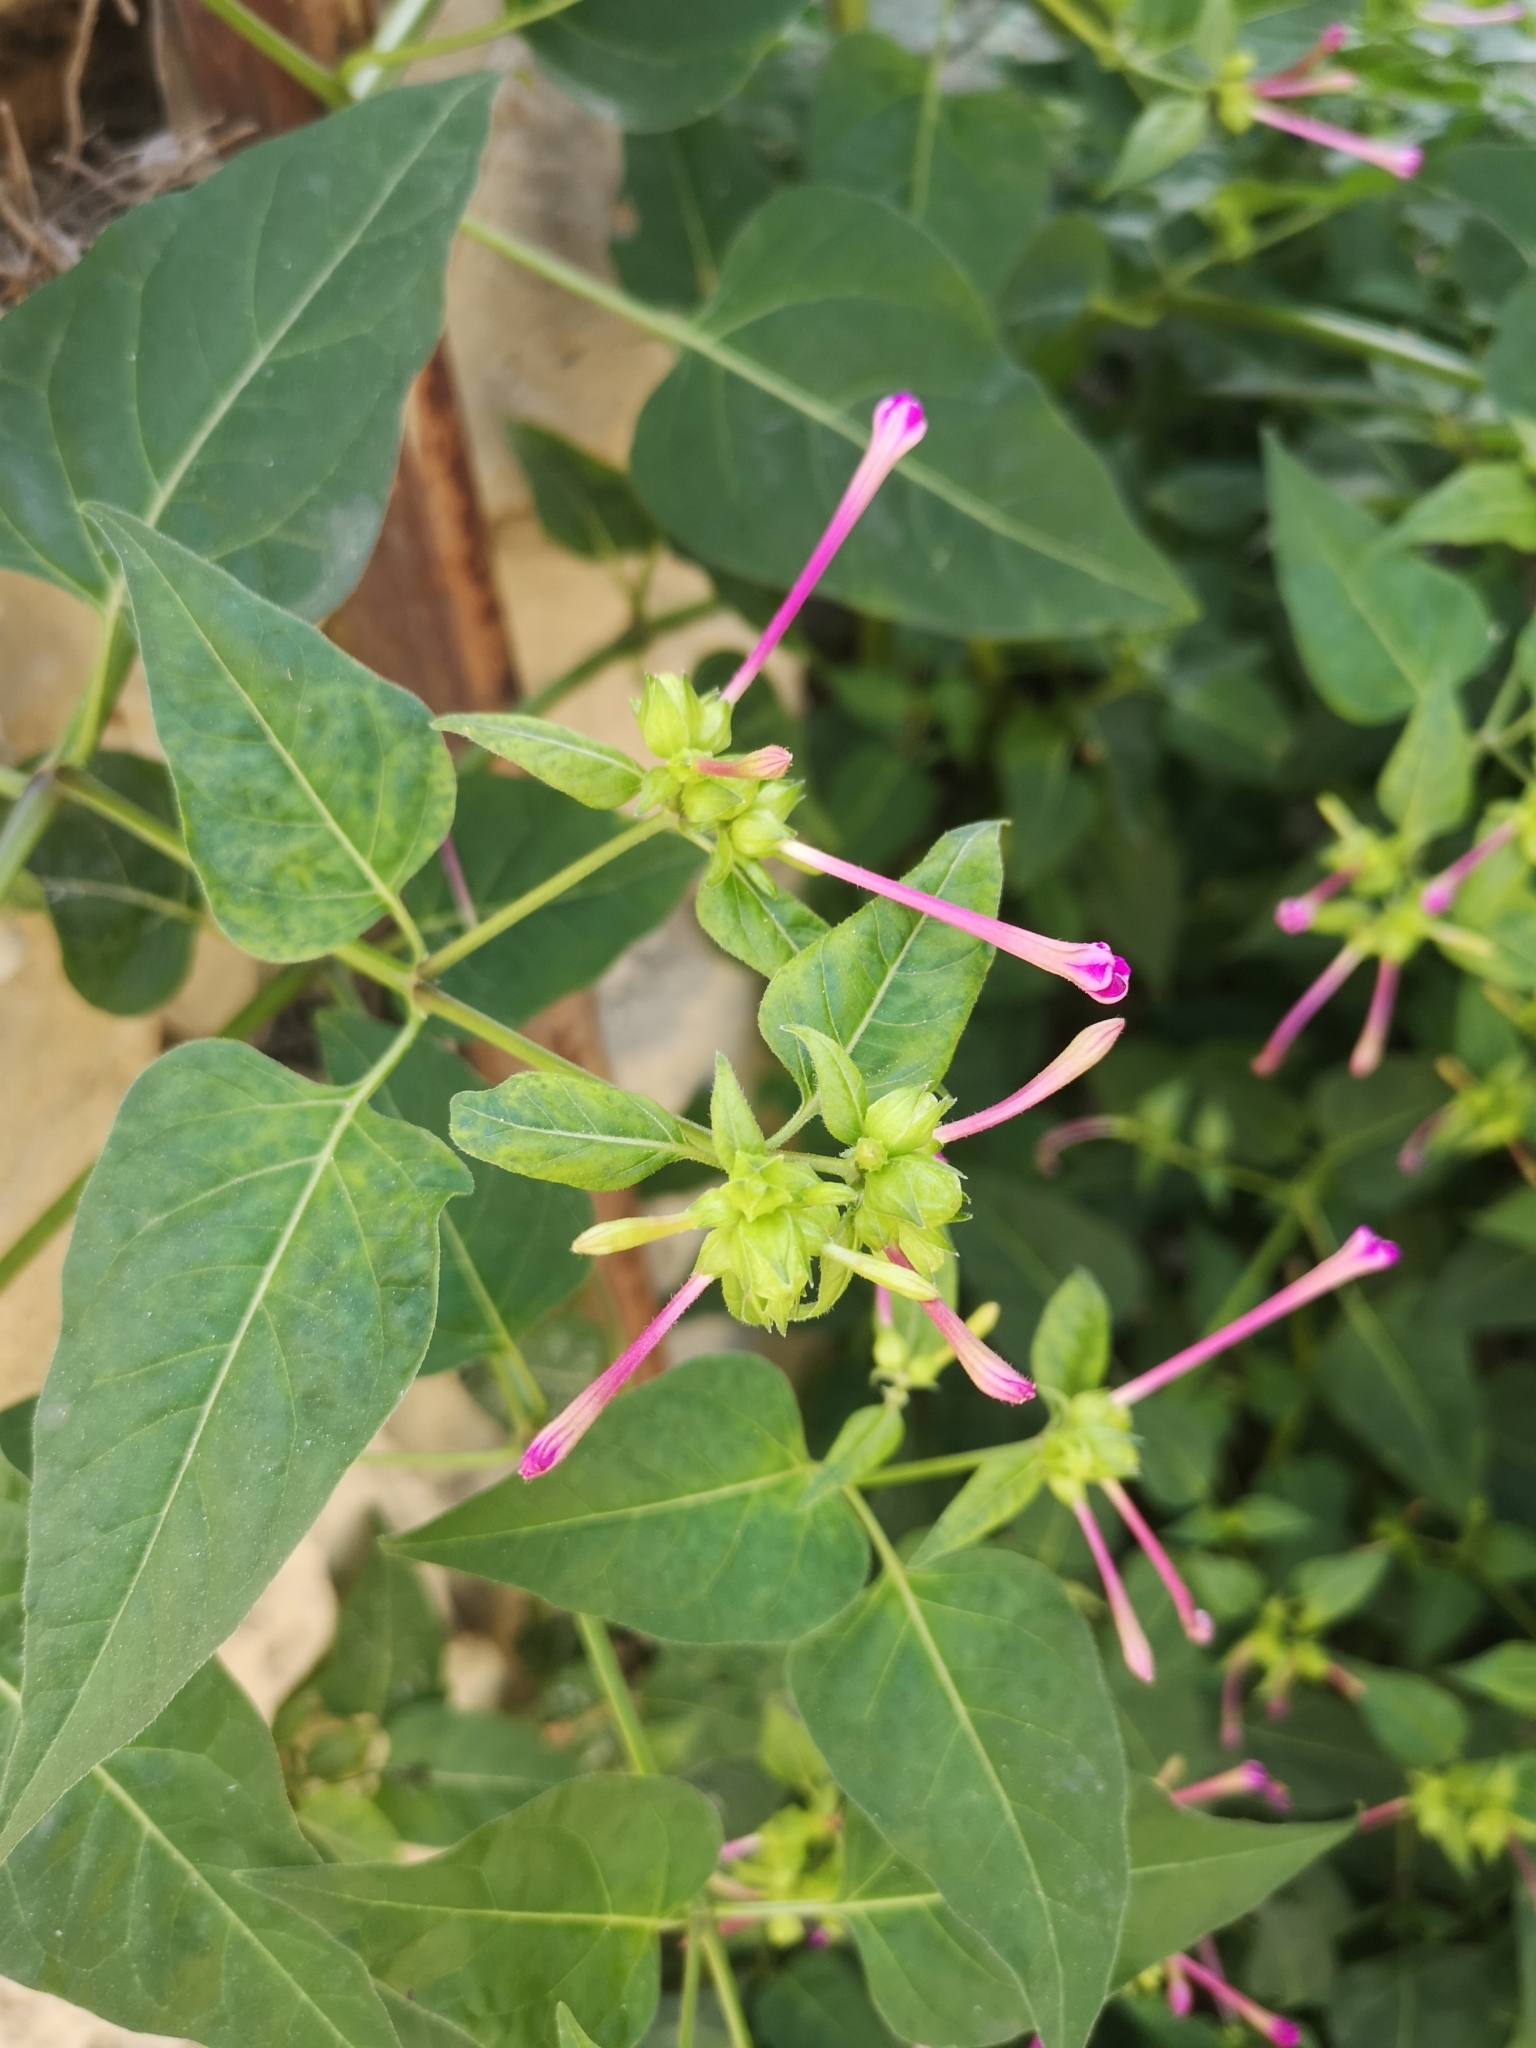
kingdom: Plantae
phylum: Tracheophyta
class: Magnoliopsida
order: Caryophyllales
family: Nyctaginaceae
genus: Mirabilis
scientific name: Mirabilis jalapa
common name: Marvel-of-peru
